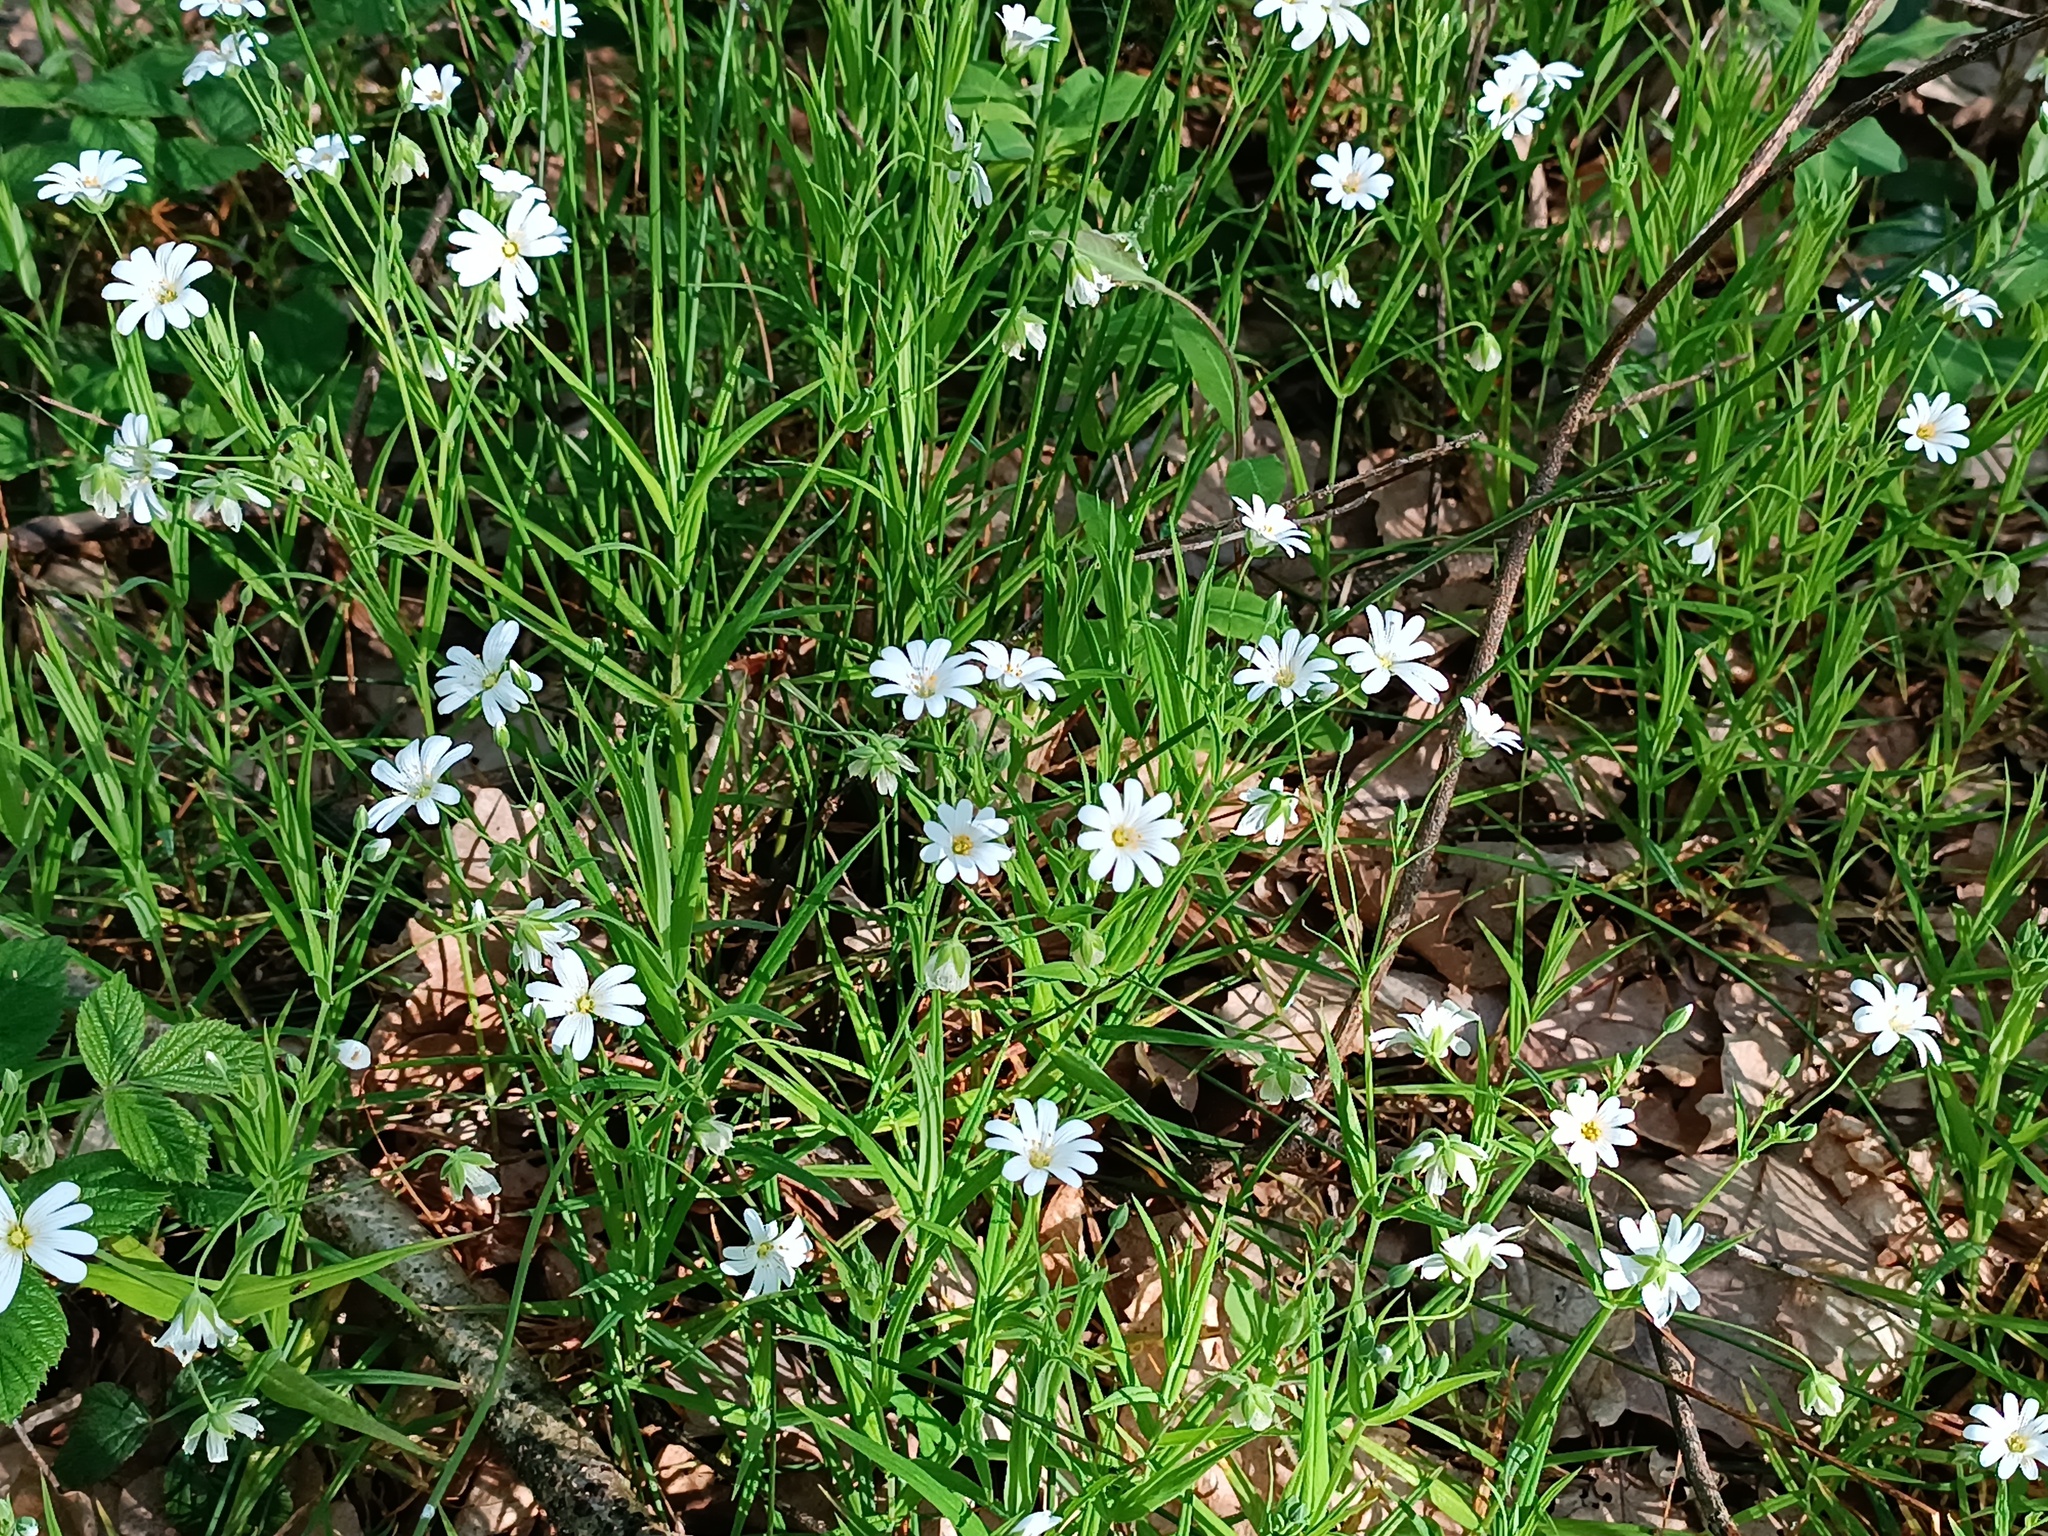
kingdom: Plantae
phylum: Tracheophyta
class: Magnoliopsida
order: Caryophyllales
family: Caryophyllaceae
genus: Rabelera
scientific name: Rabelera holostea
